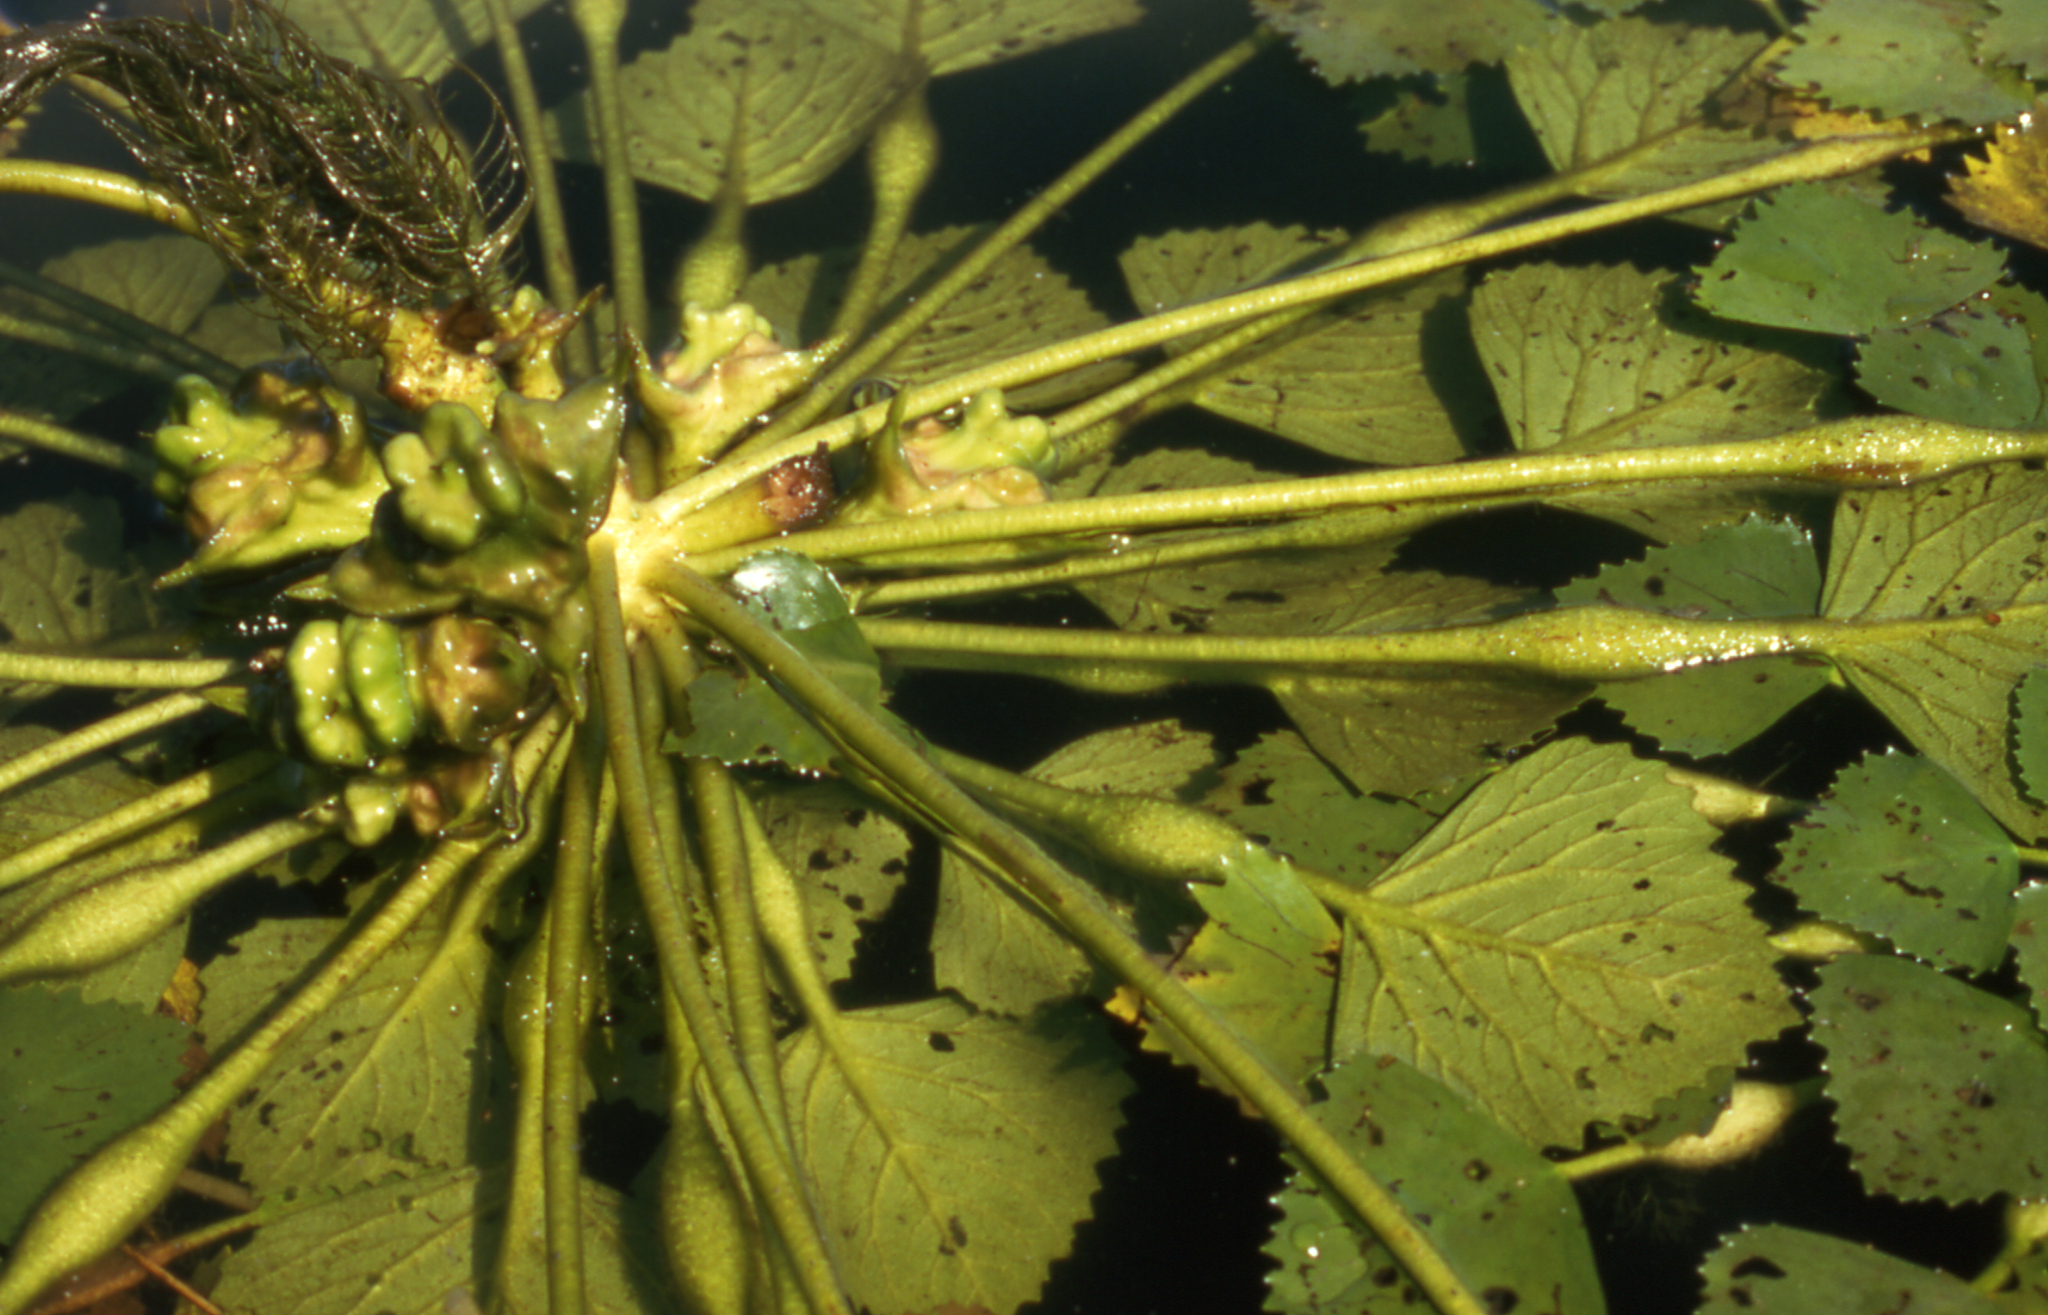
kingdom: Plantae
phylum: Tracheophyta
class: Magnoliopsida
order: Myrtales
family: Lythraceae
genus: Trapa
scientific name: Trapa natans
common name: Water chestnut
